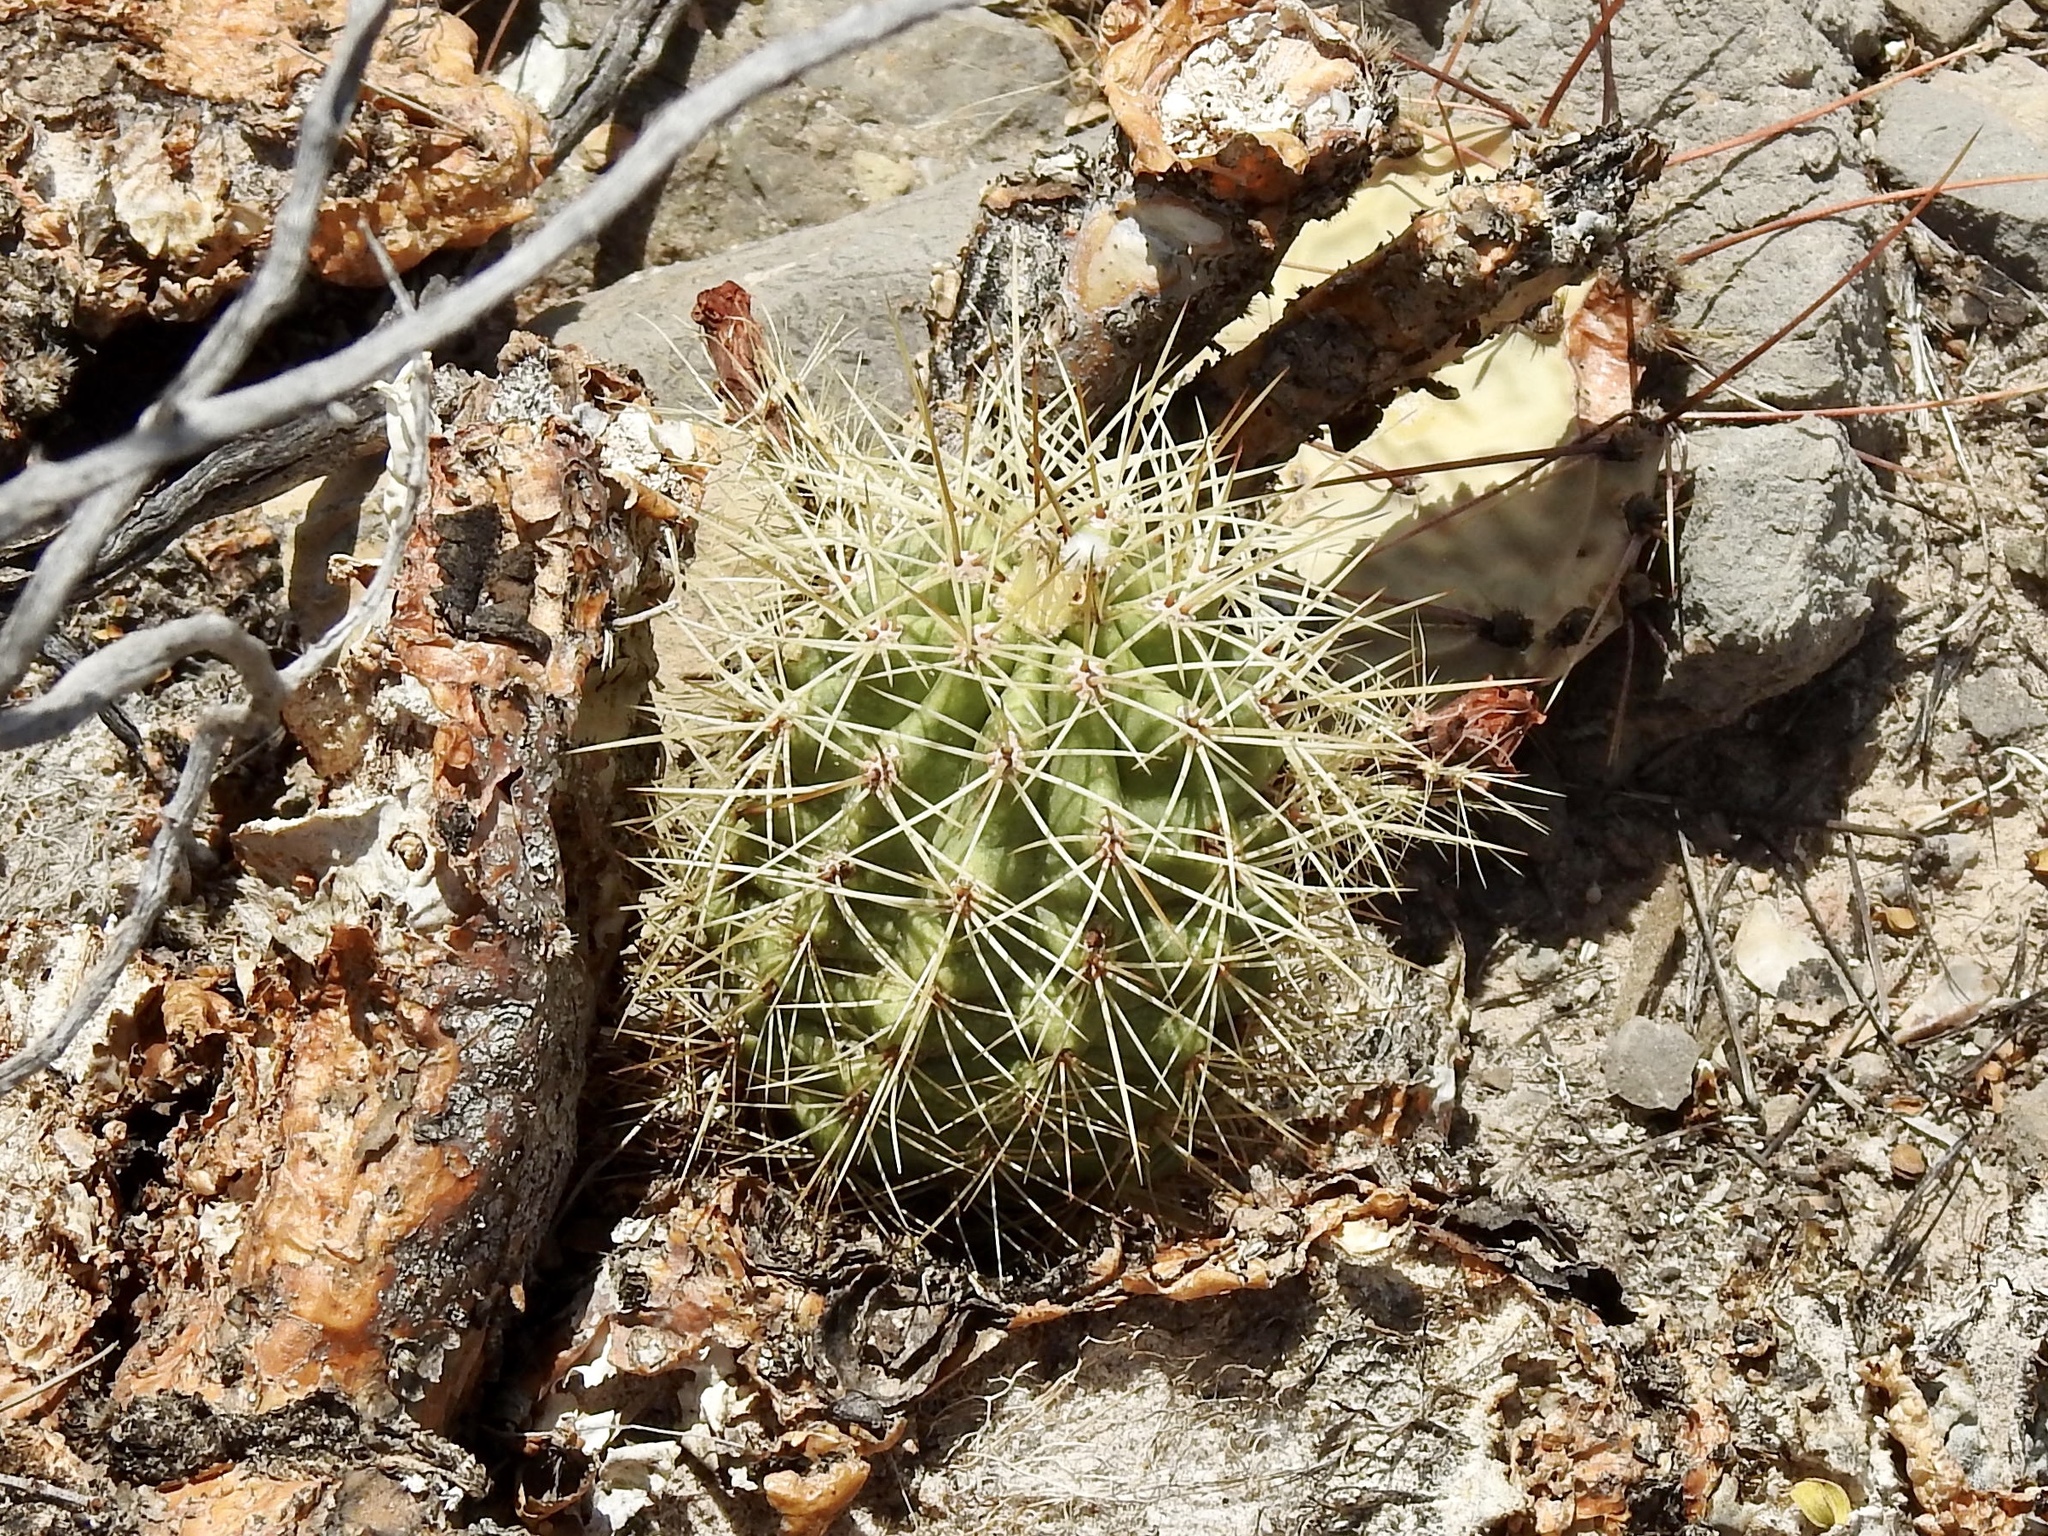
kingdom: Plantae
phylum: Tracheophyta
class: Magnoliopsida
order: Caryophyllales
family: Cactaceae
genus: Echinocereus
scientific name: Echinocereus coccineus
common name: Scarlet hedgehog cactus
